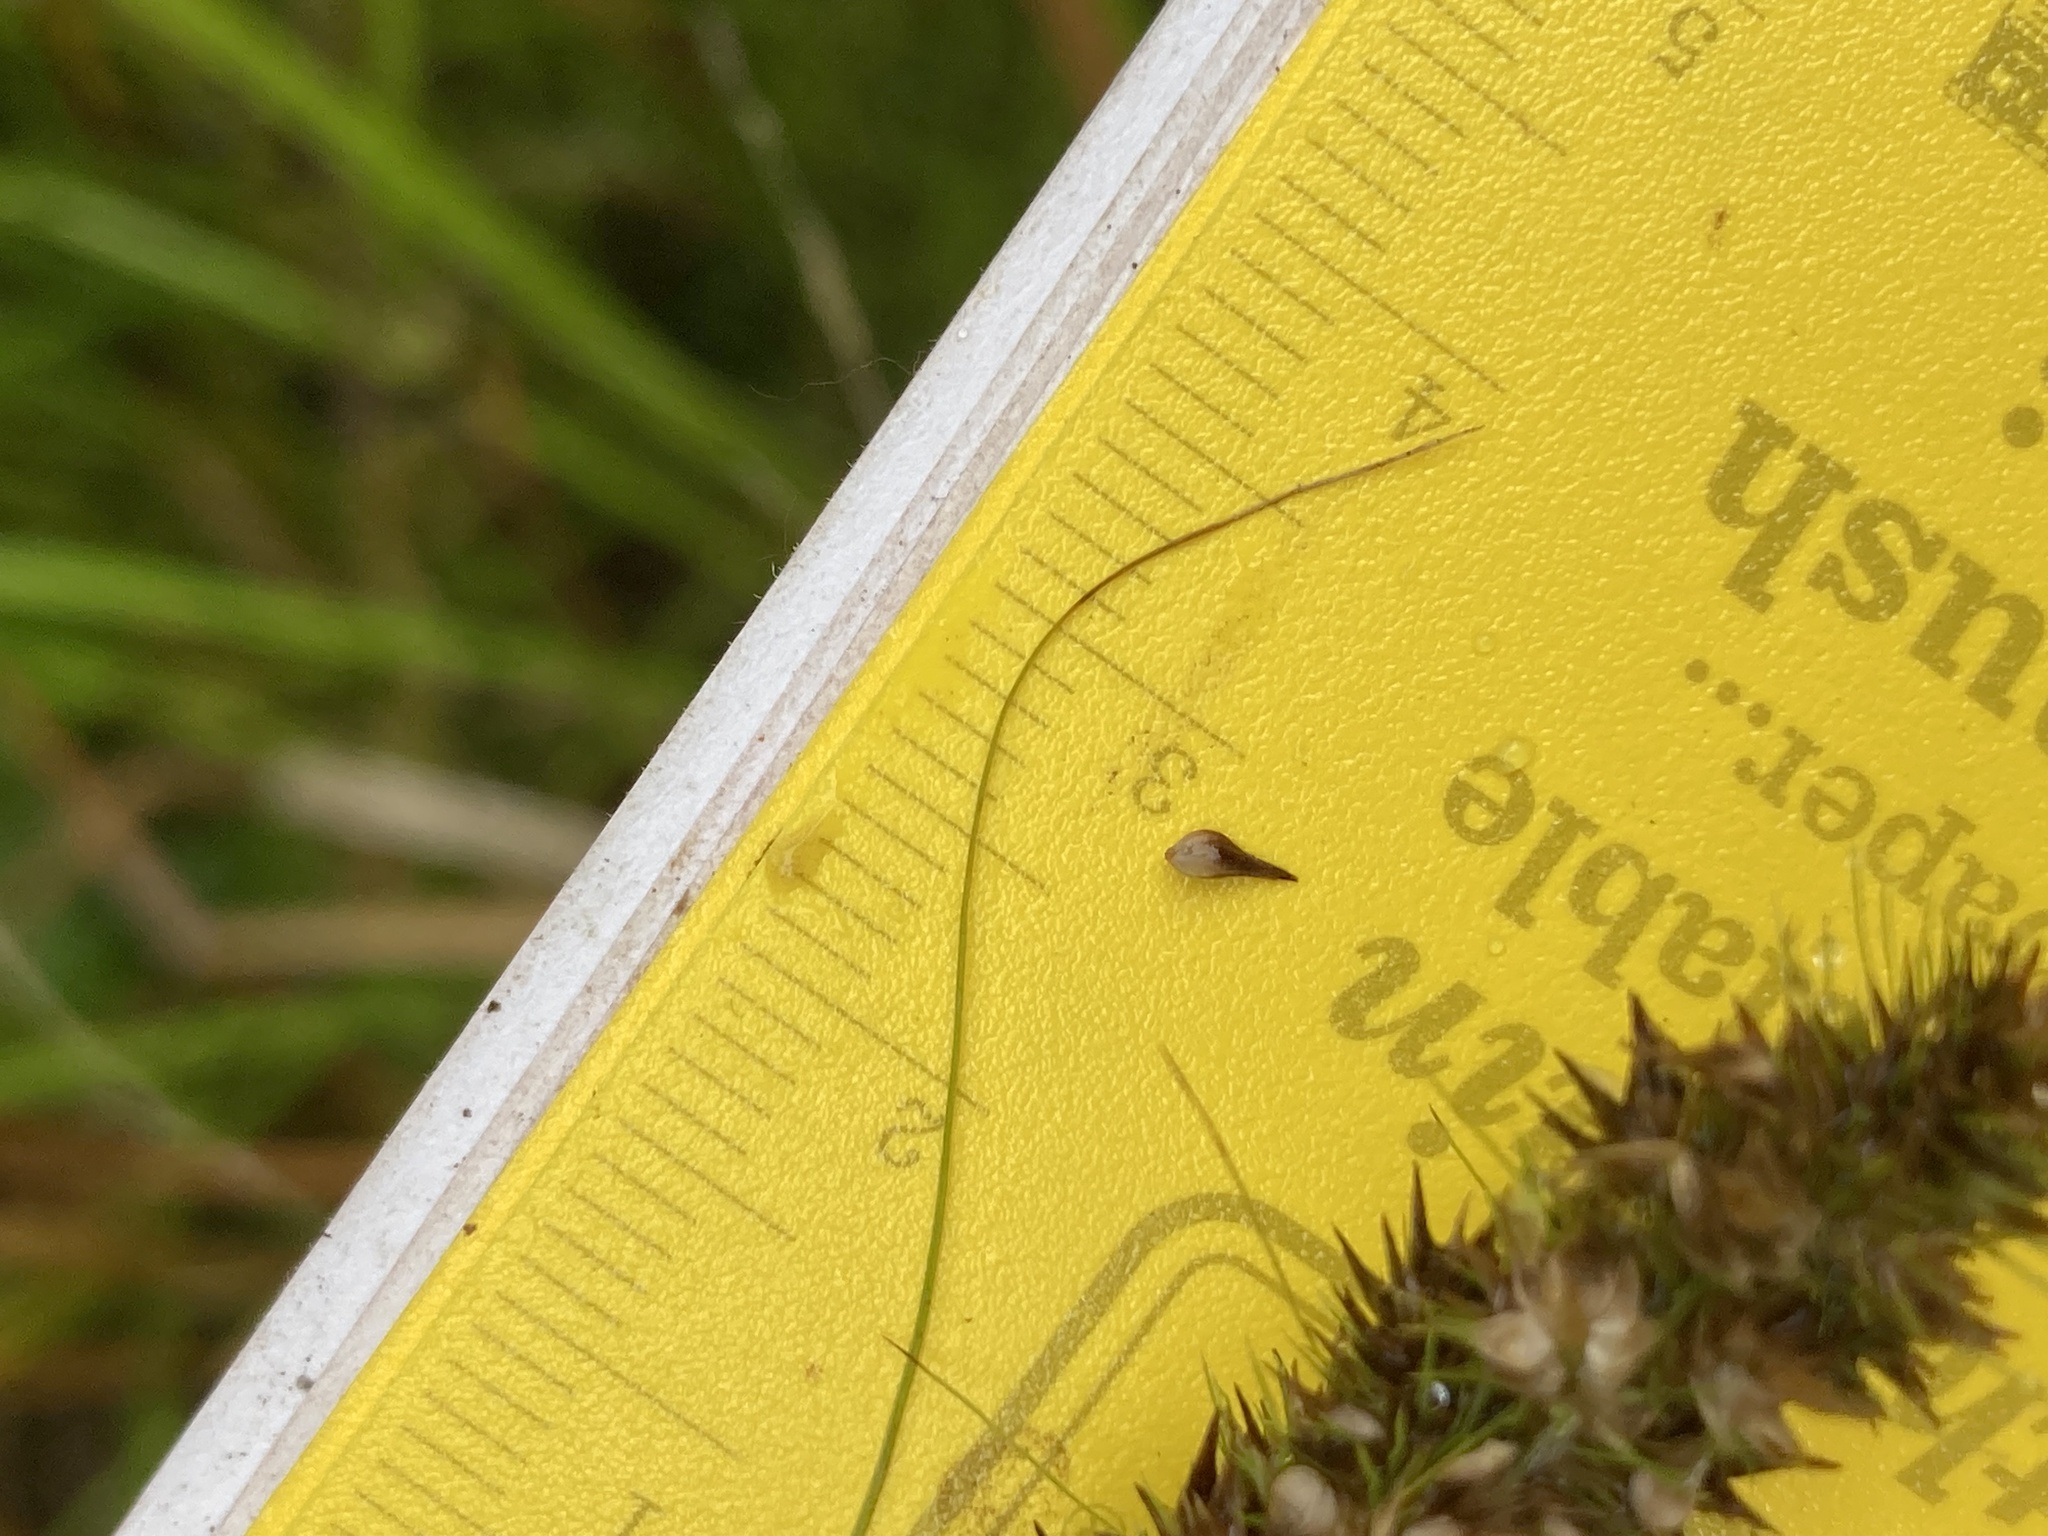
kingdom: Plantae
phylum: Tracheophyta
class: Liliopsida
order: Poales
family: Cyperaceae
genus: Carex
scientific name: Carex vulpinoidea
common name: American fox-sedge
